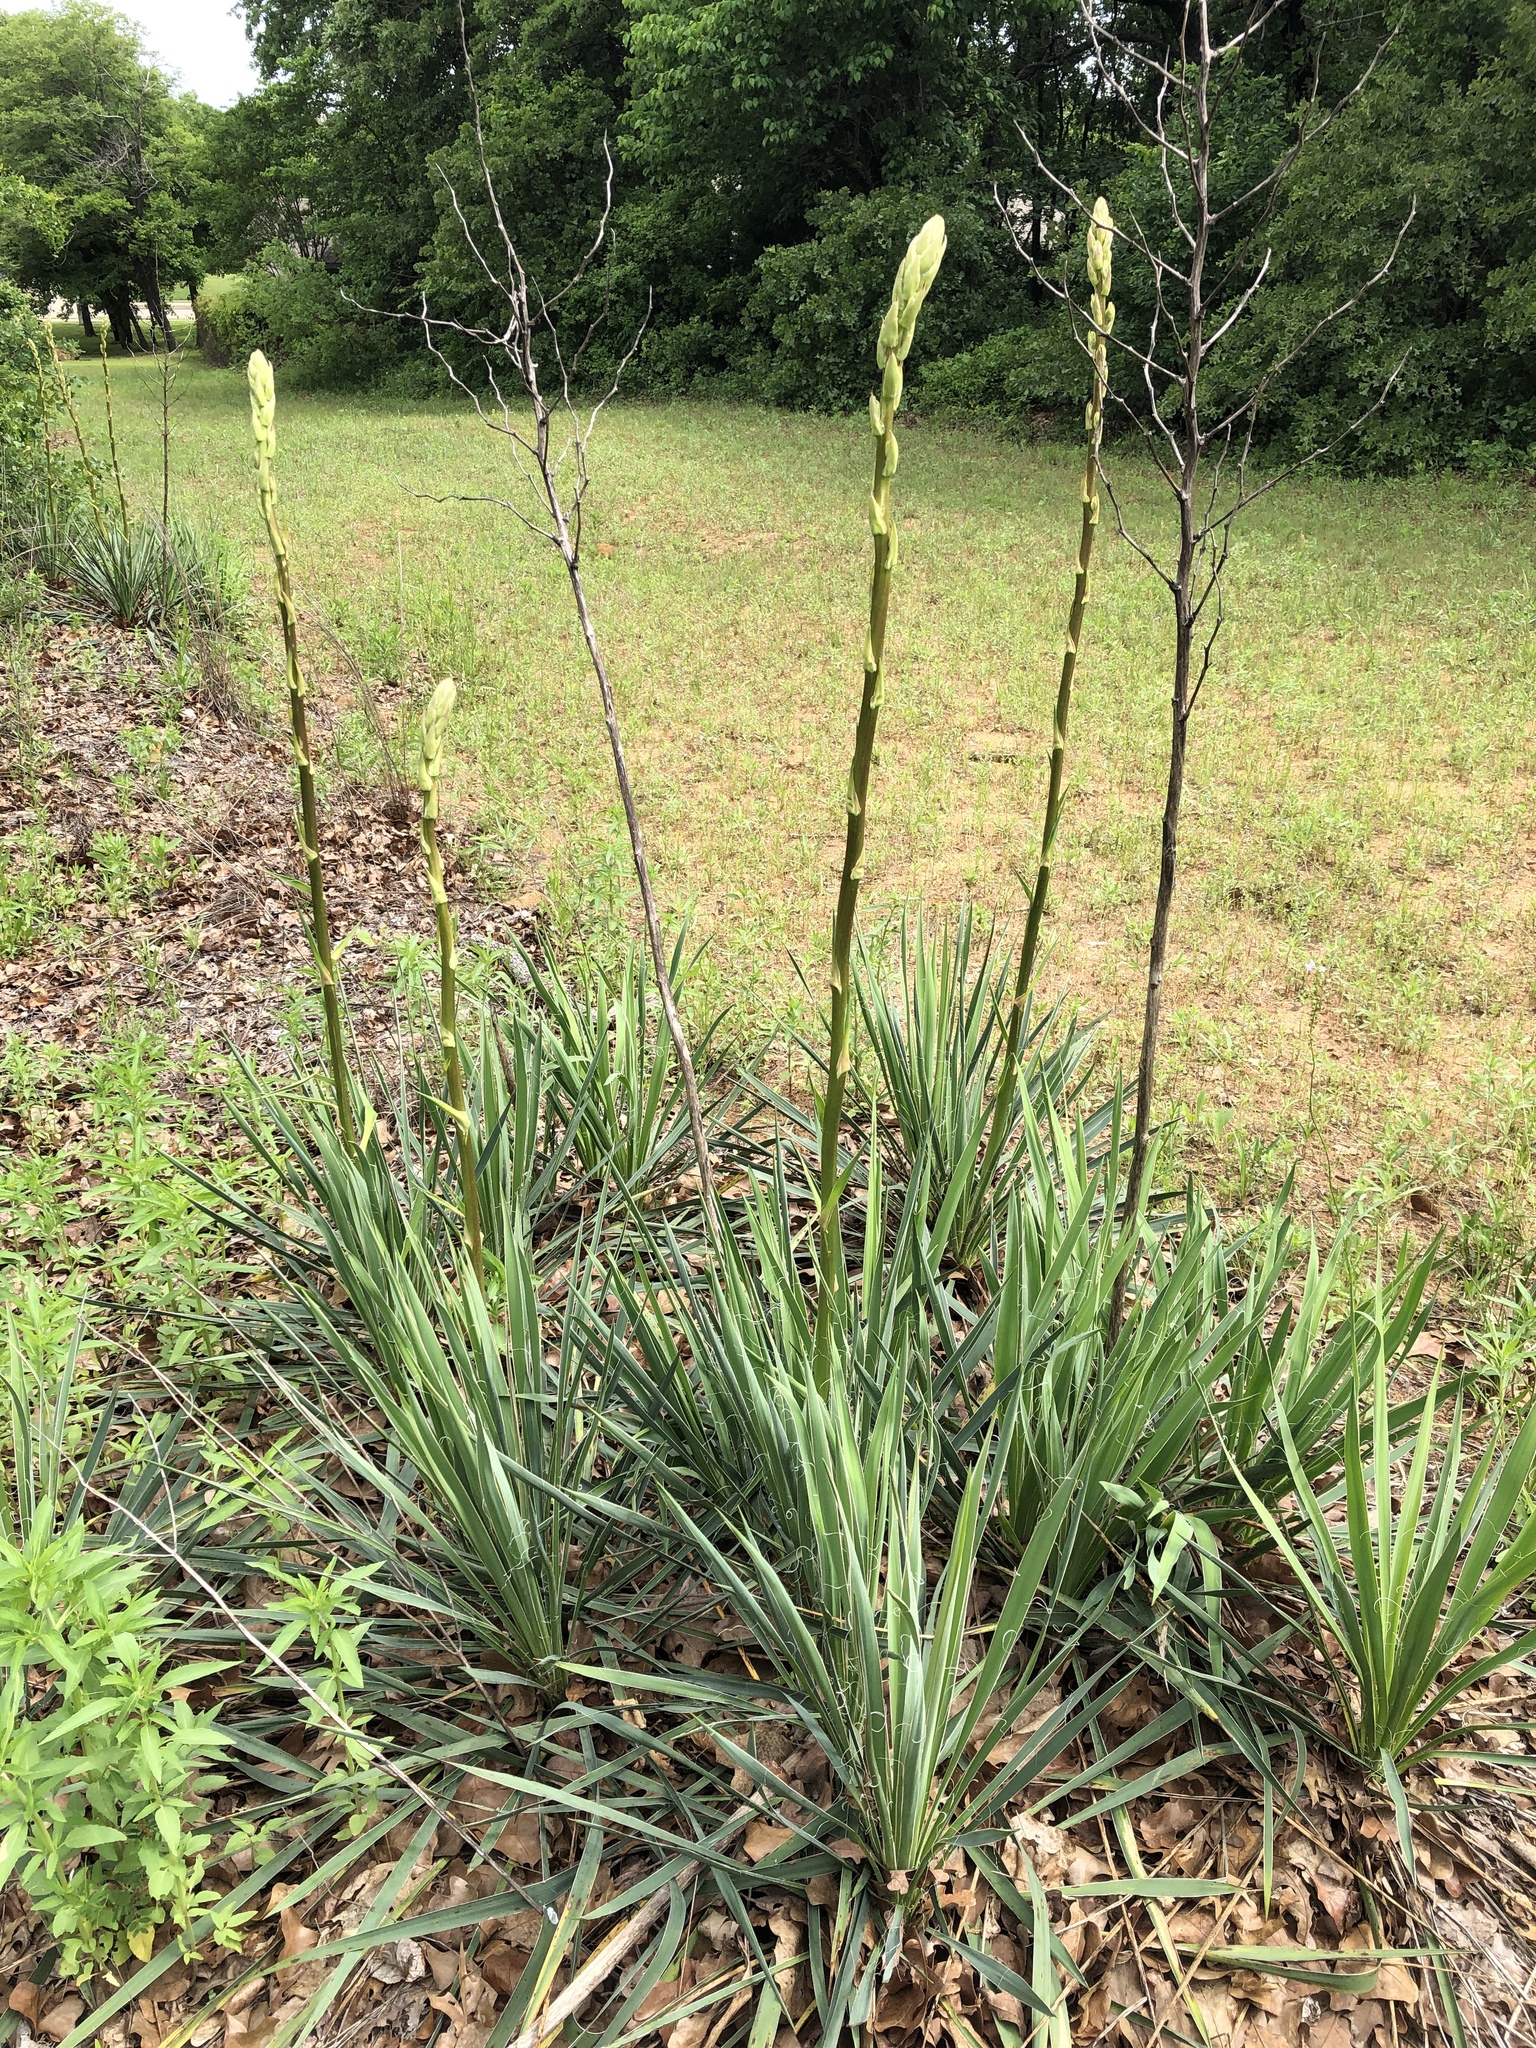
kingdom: Plantae
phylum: Tracheophyta
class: Liliopsida
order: Asparagales
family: Asparagaceae
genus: Yucca
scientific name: Yucca necopina
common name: Glen rose yucca
